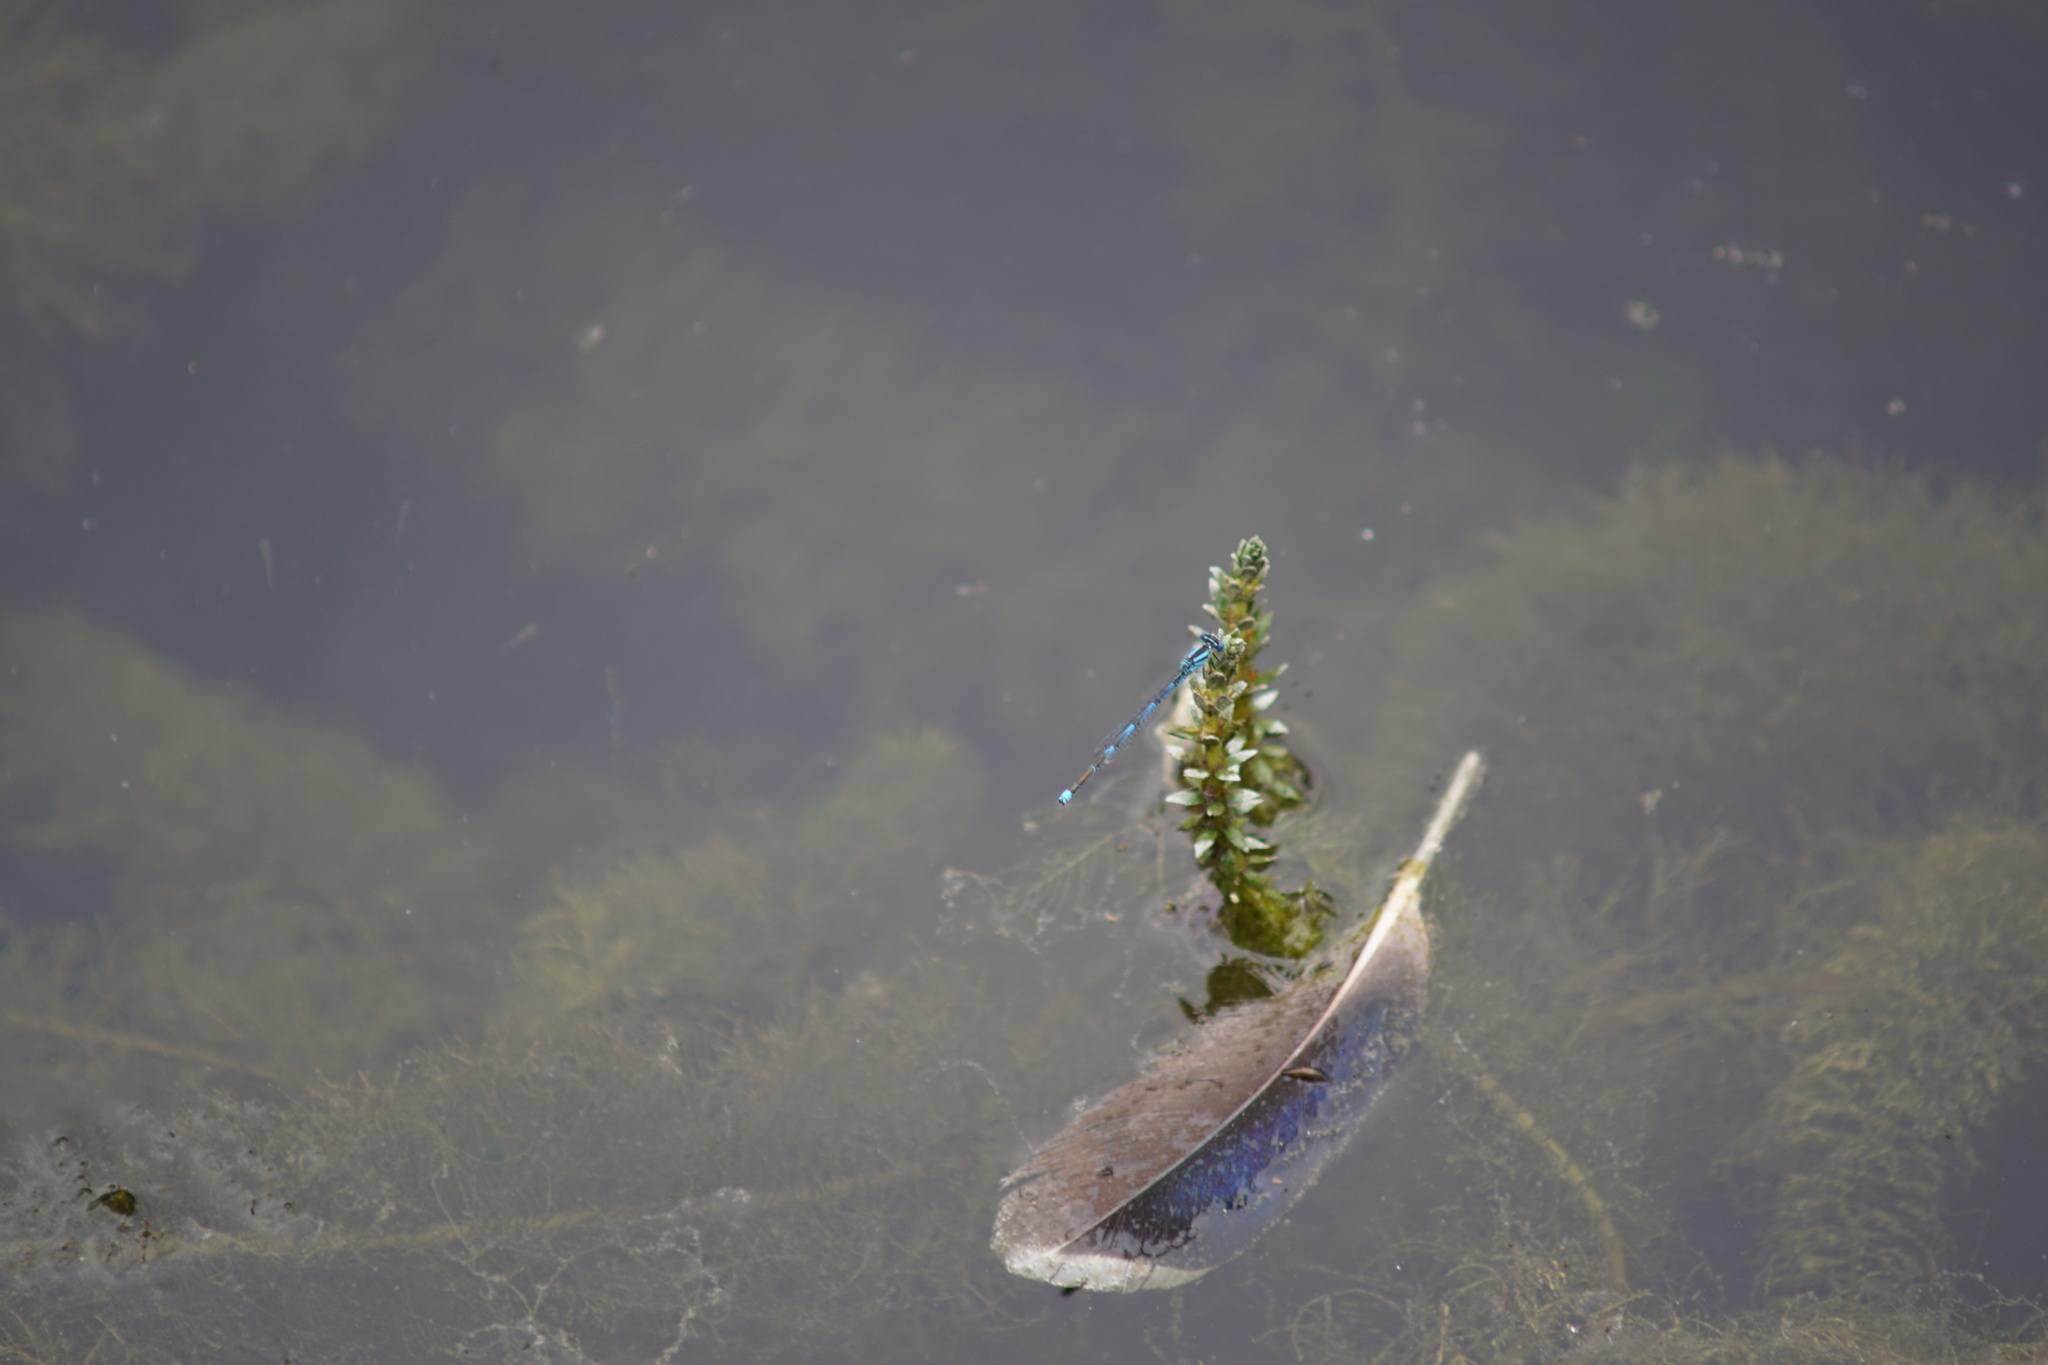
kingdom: Animalia
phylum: Arthropoda
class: Insecta
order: Odonata
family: Coenagrionidae
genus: Erythromma
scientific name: Erythromma lindenii
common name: Blue-eye
